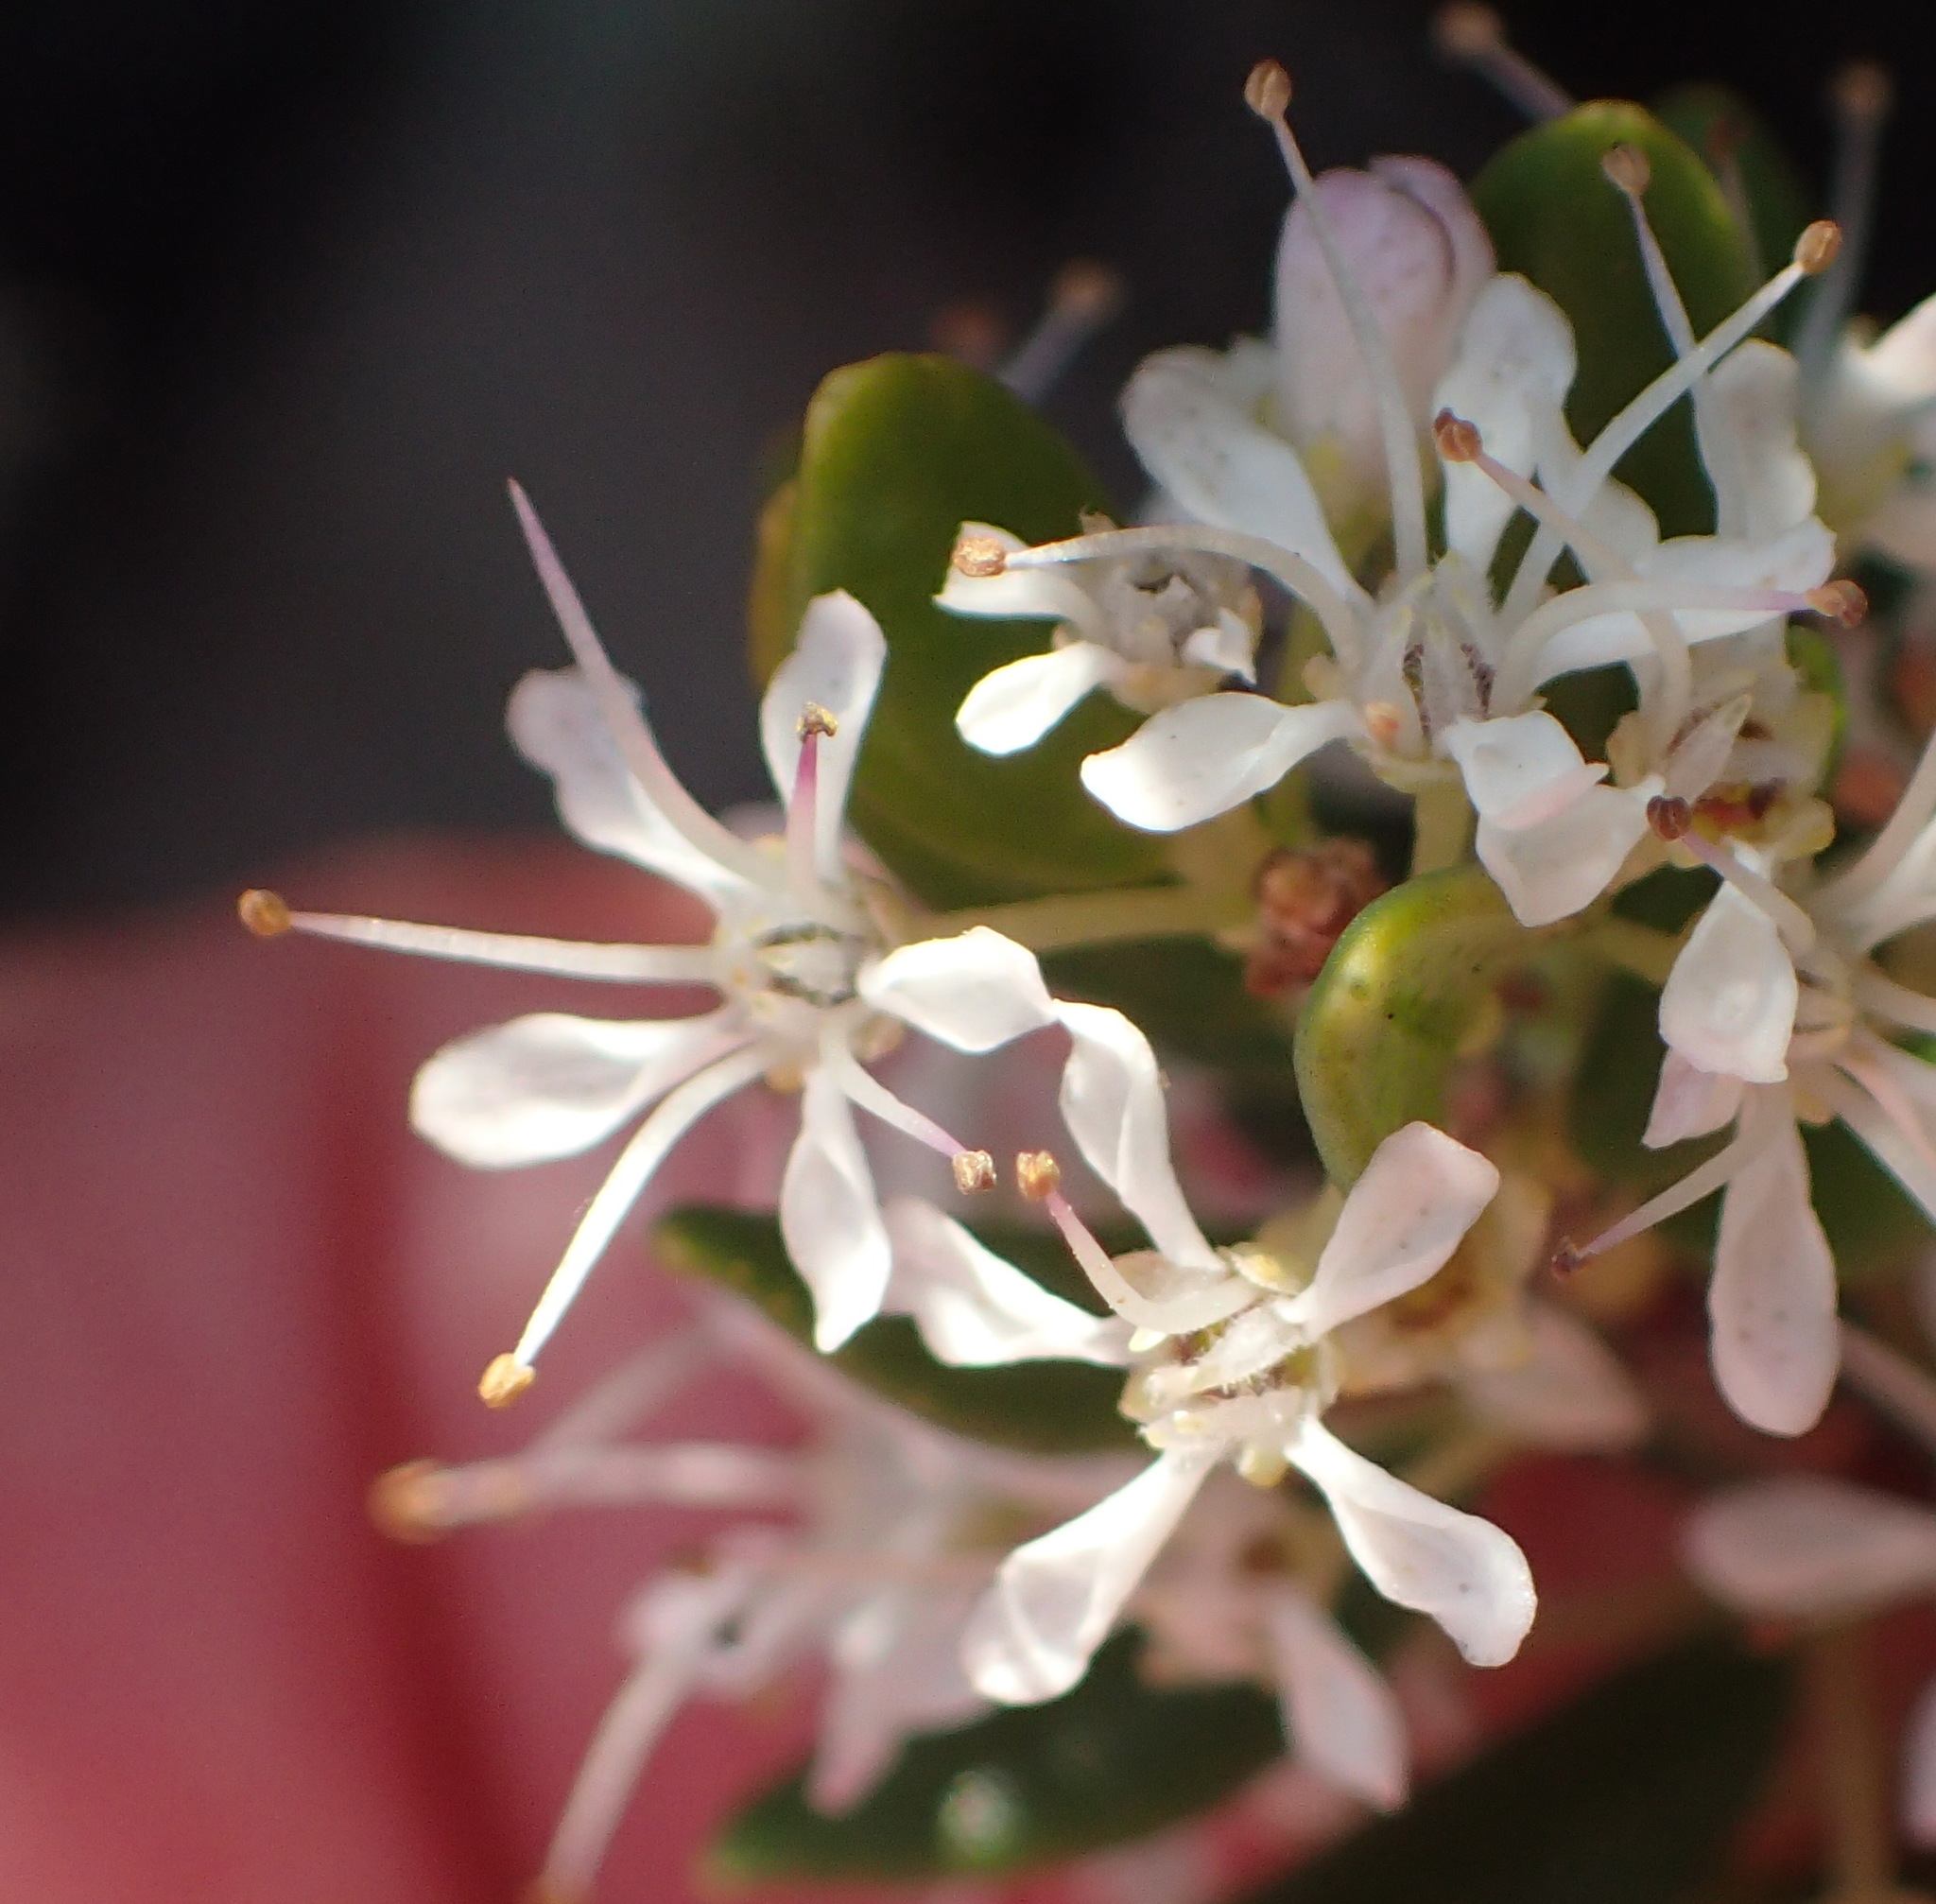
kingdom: Plantae
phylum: Tracheophyta
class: Magnoliopsida
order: Sapindales
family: Rutaceae
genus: Agathosma
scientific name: Agathosma ovata
